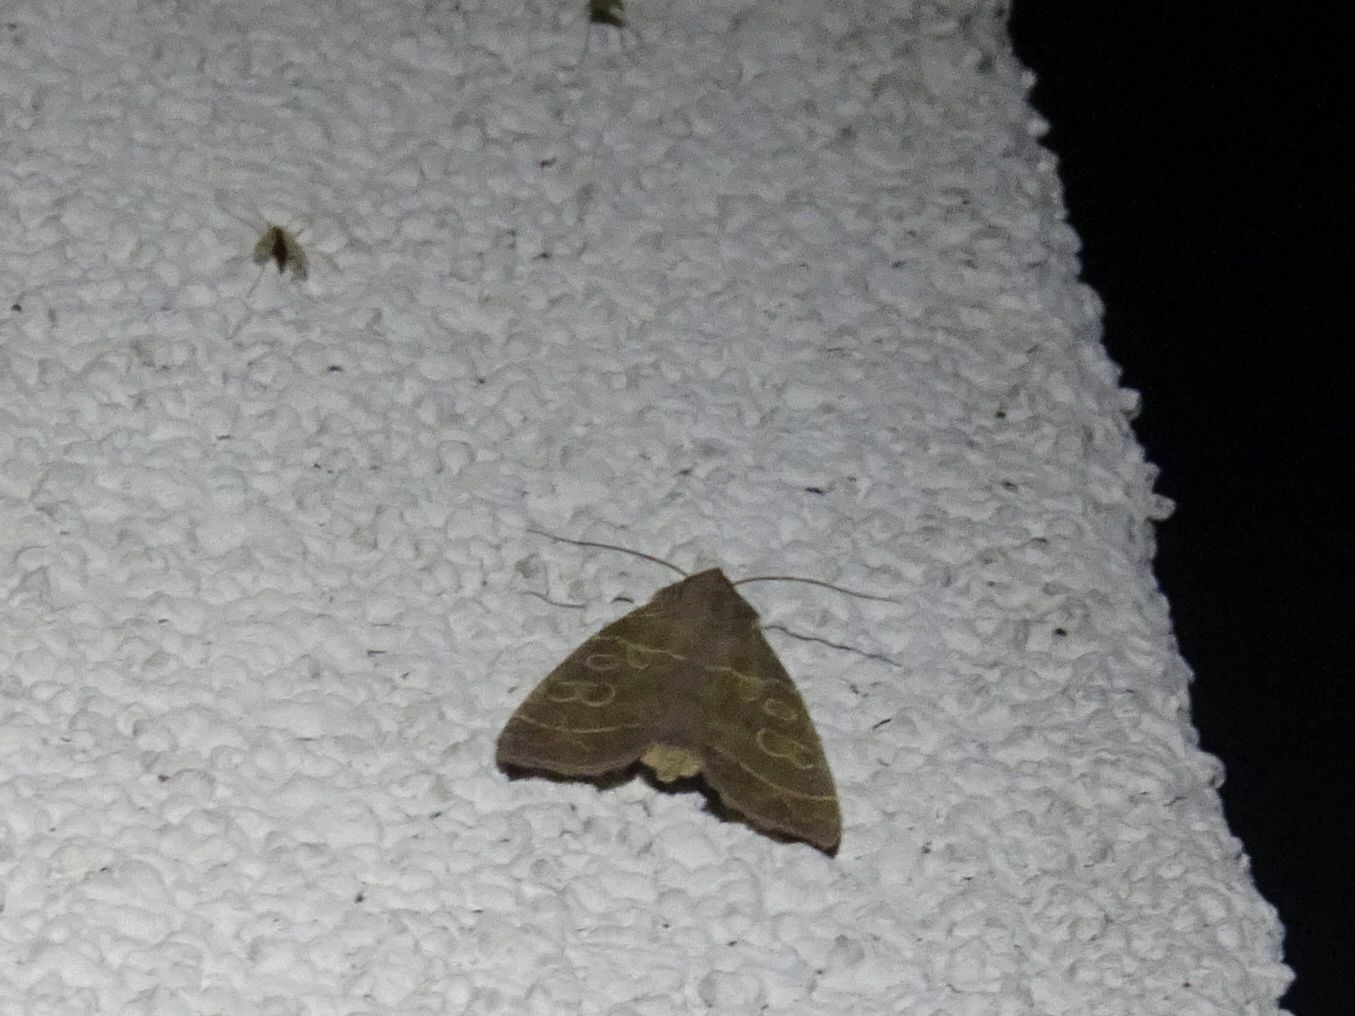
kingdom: Animalia
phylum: Arthropoda
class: Insecta
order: Lepidoptera
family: Noctuidae
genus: Ipimorpha
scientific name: Ipimorpha subtusa
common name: Olive
